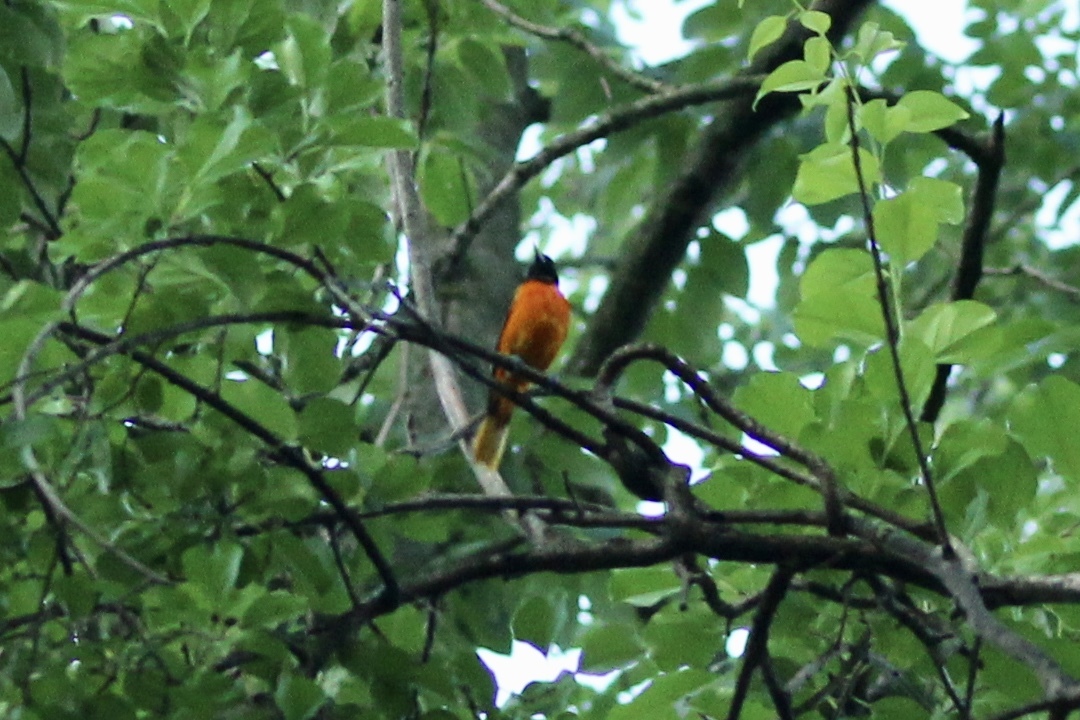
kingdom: Animalia
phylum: Chordata
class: Aves
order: Passeriformes
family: Icteridae
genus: Icterus
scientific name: Icterus galbula
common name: Baltimore oriole
